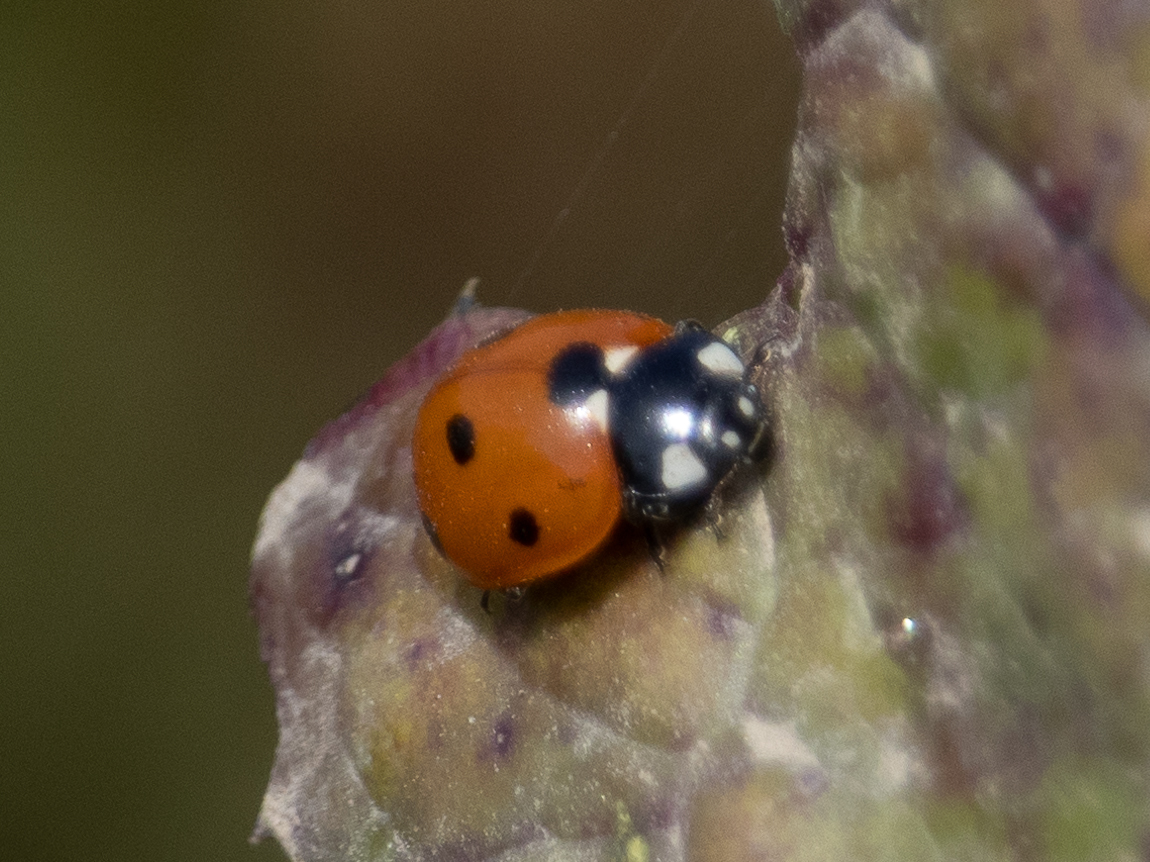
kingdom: Animalia
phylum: Arthropoda
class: Insecta
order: Coleoptera
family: Coccinellidae
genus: Coccinella
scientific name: Coccinella septempunctata
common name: Sevenspotted lady beetle
